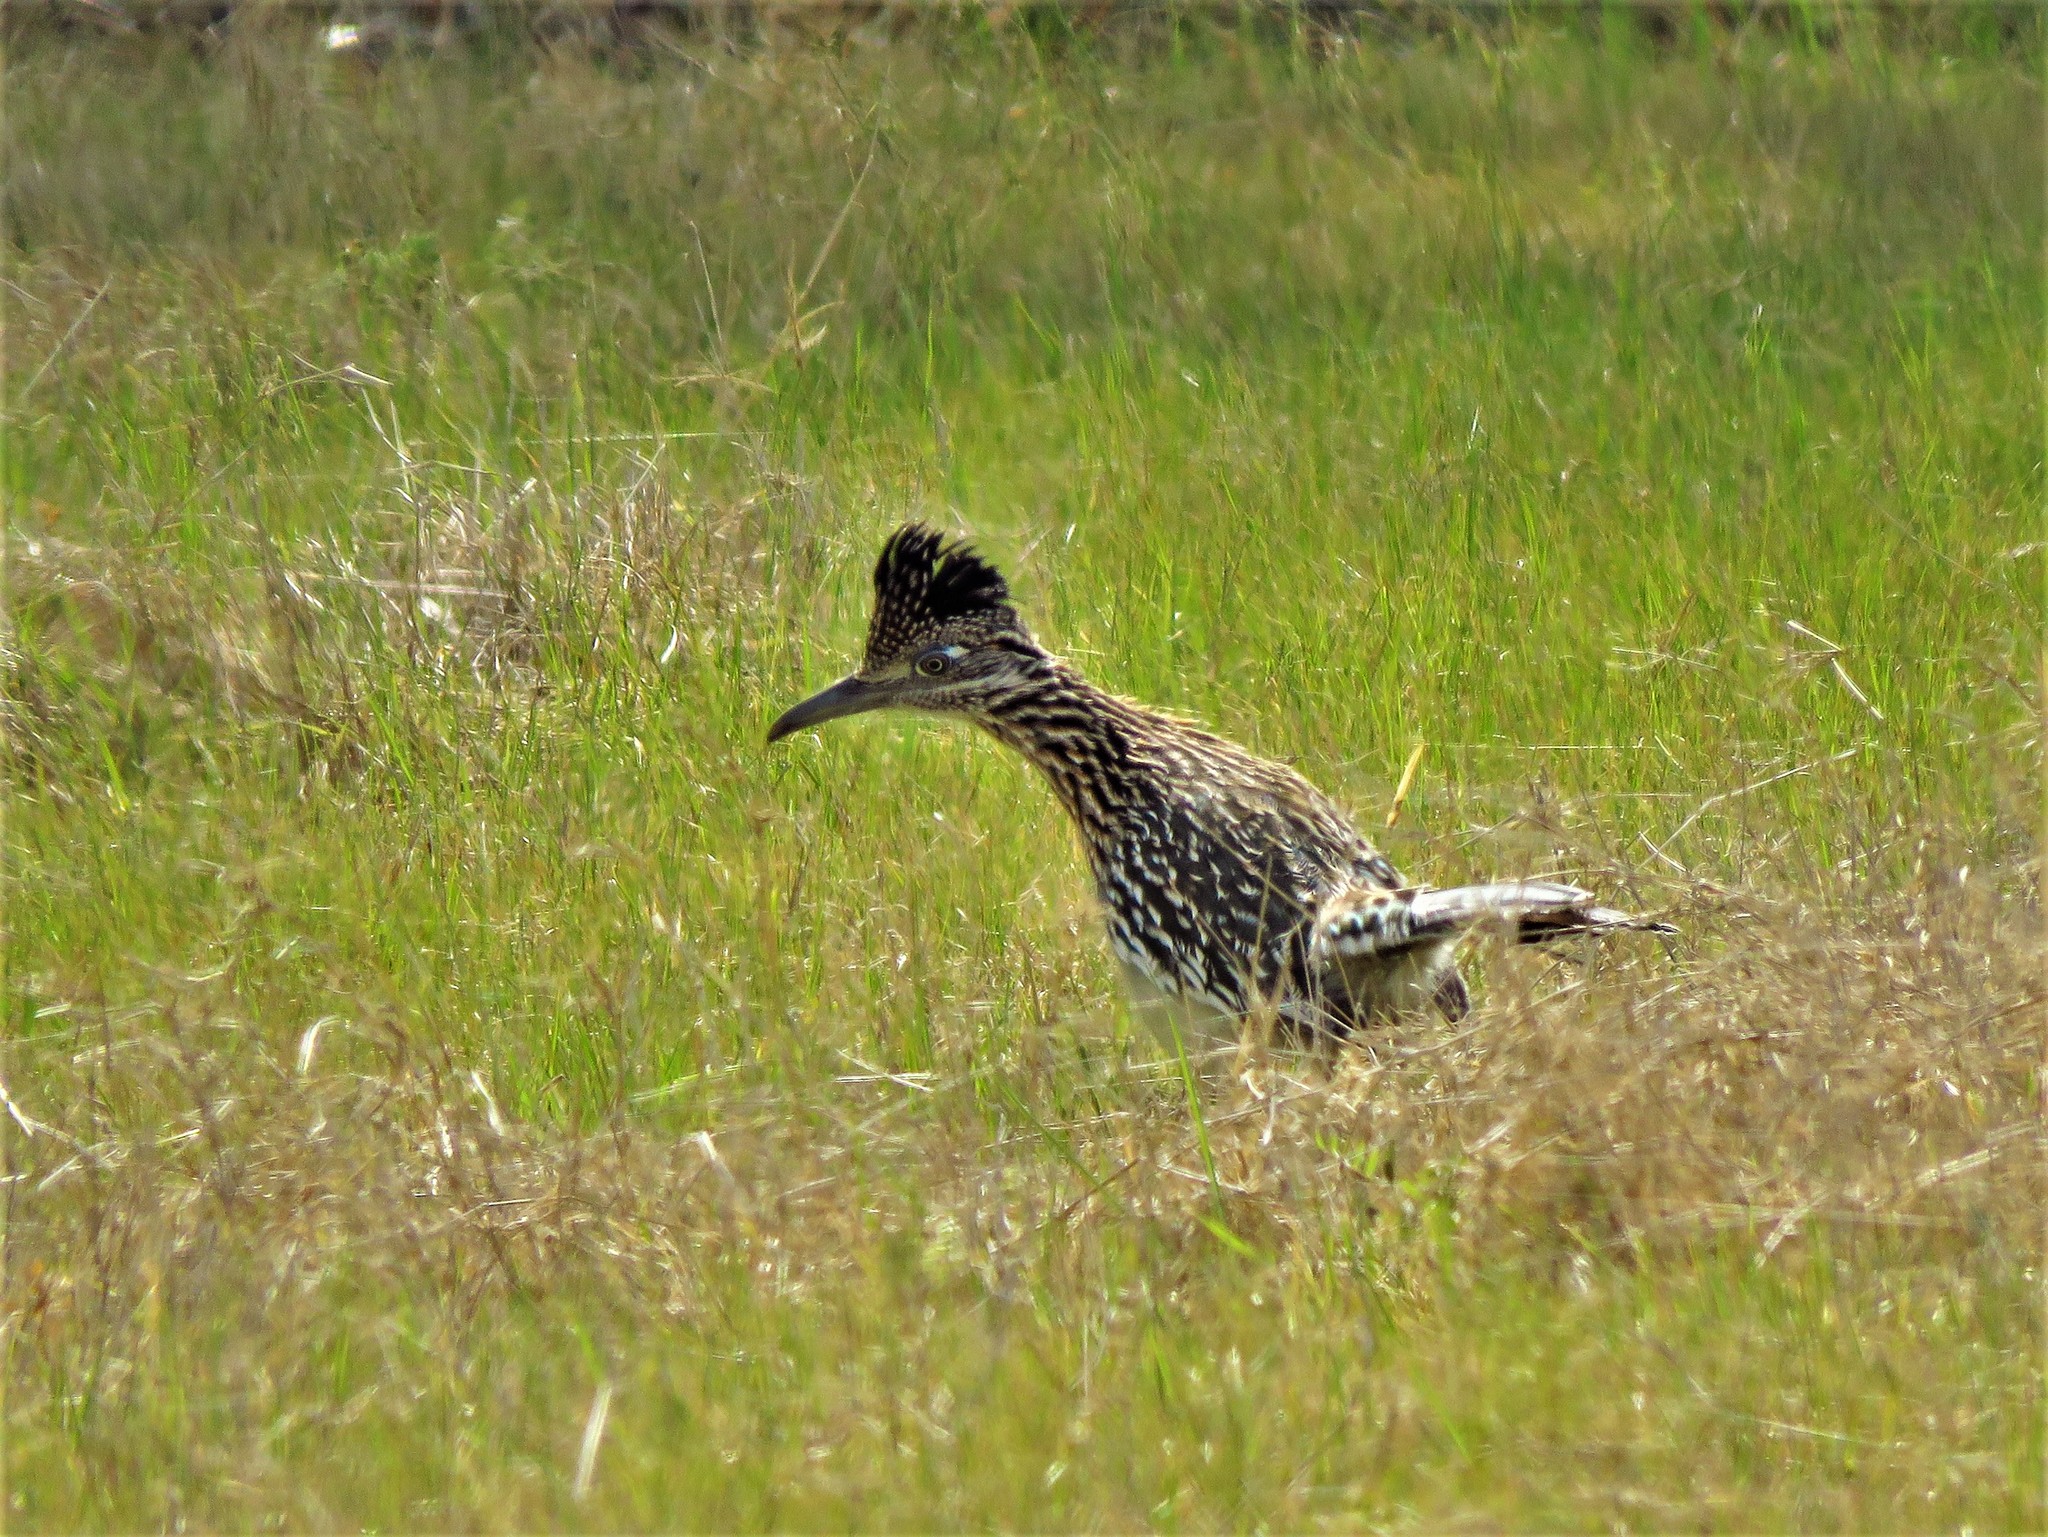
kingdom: Animalia
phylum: Chordata
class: Aves
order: Cuculiformes
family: Cuculidae
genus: Geococcyx
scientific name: Geococcyx californianus
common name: Greater roadrunner
